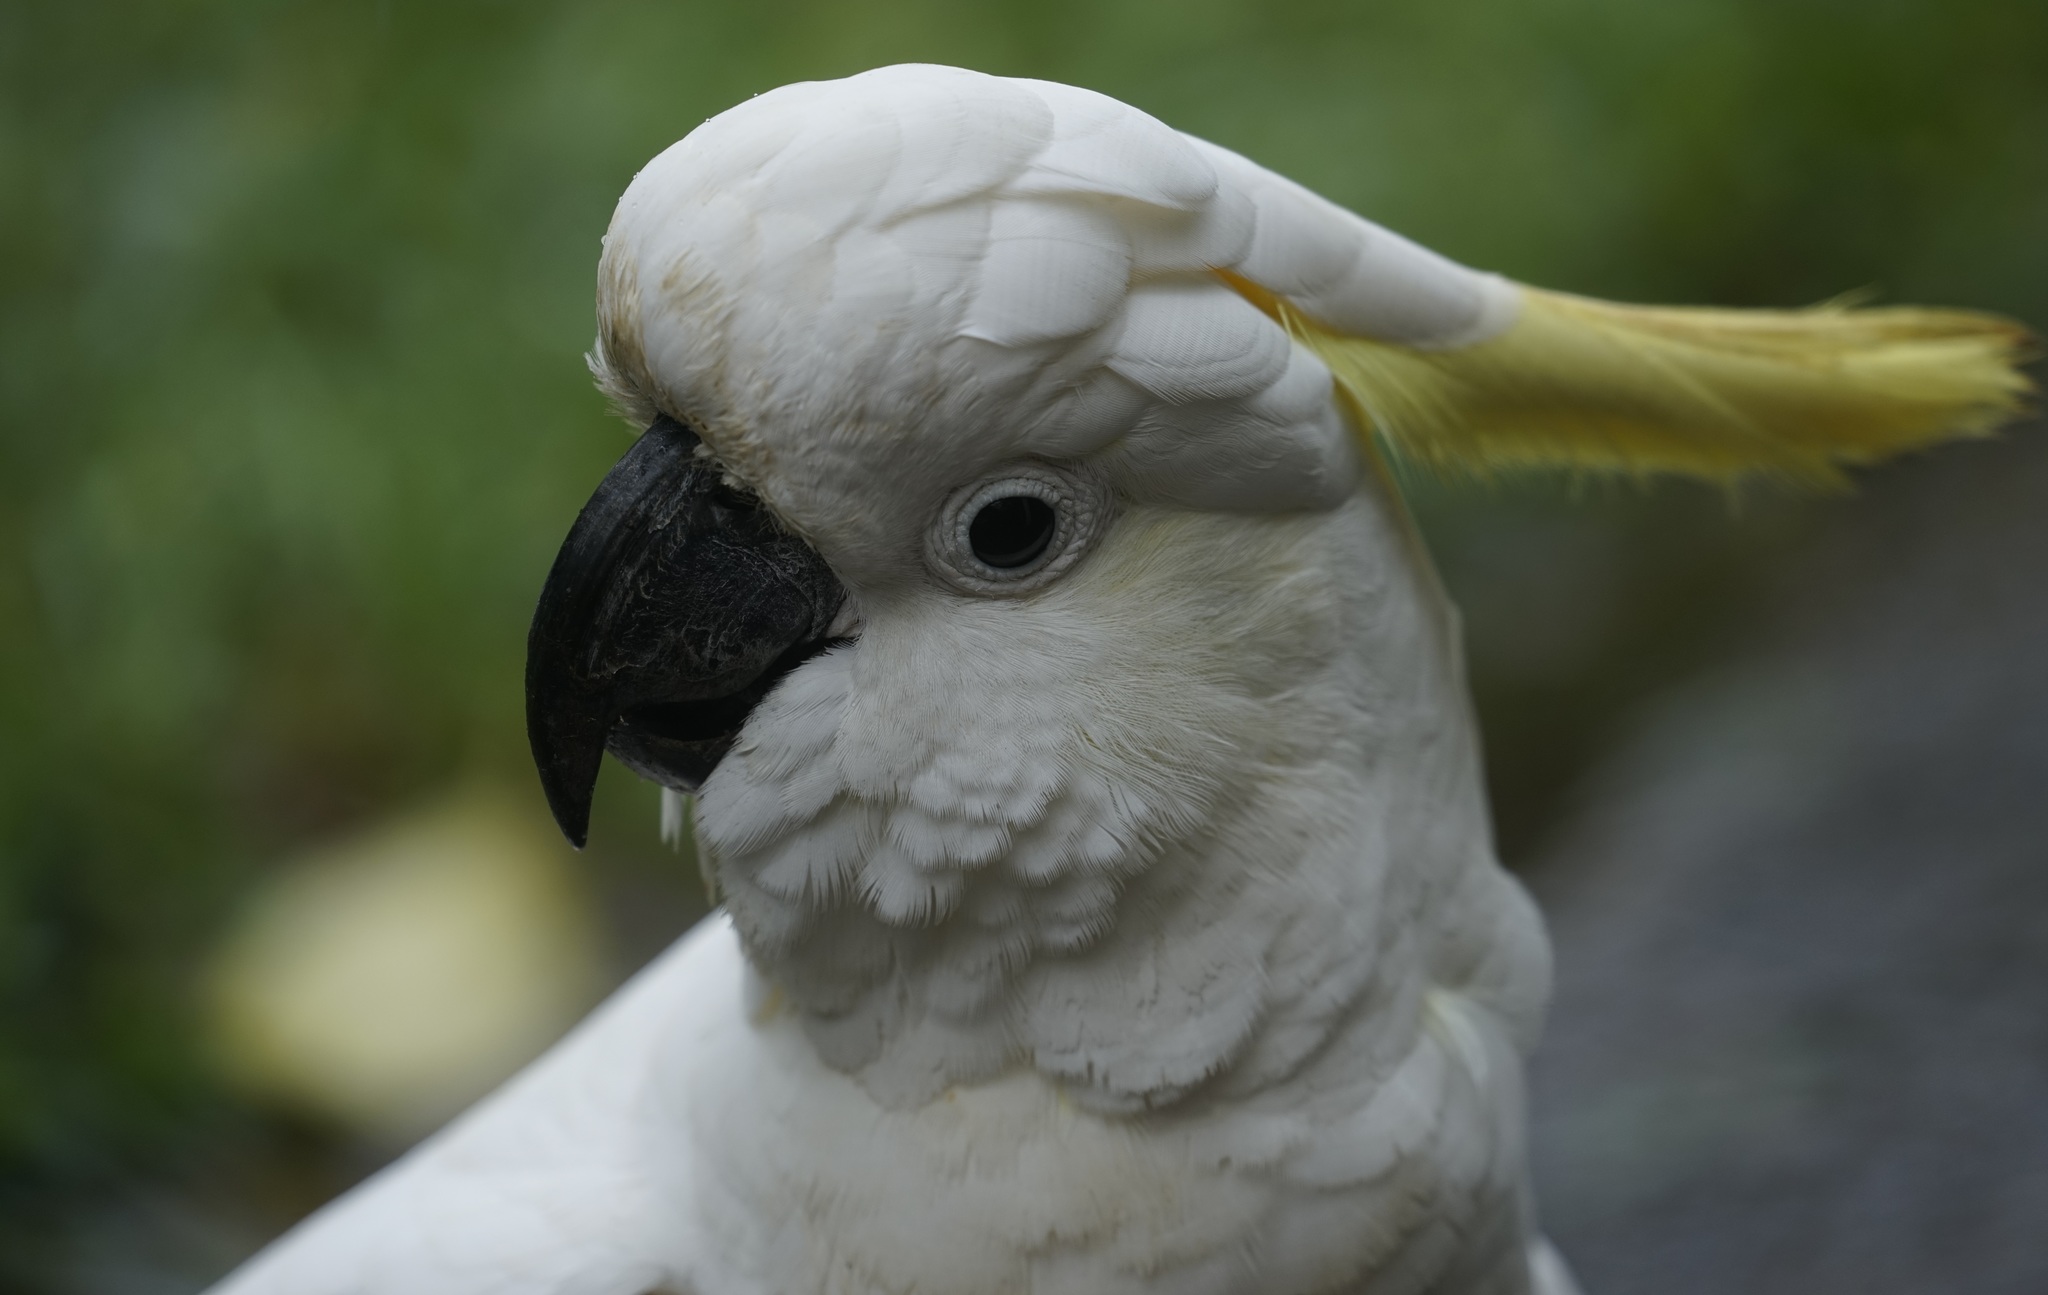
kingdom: Animalia
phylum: Chordata
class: Aves
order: Psittaciformes
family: Psittacidae
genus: Cacatua
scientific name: Cacatua galerita
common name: Sulphur-crested cockatoo
